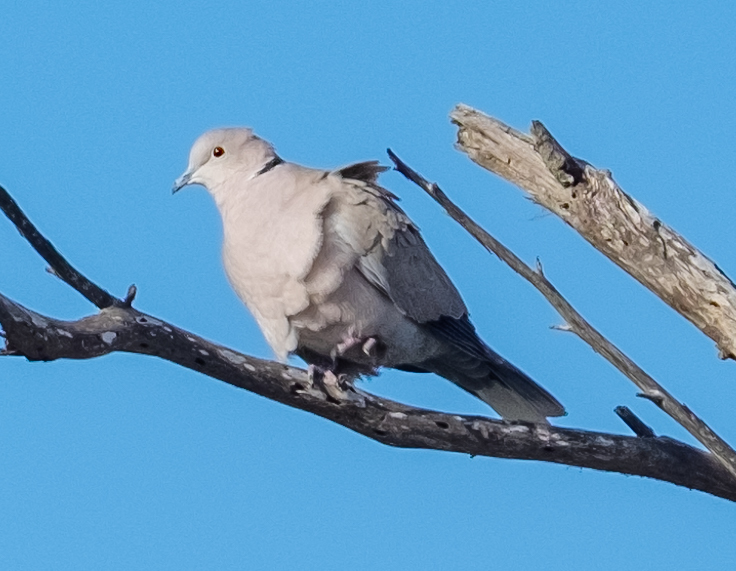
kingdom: Animalia
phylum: Chordata
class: Aves
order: Columbiformes
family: Columbidae
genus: Streptopelia
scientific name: Streptopelia decaocto
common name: Eurasian collared dove
